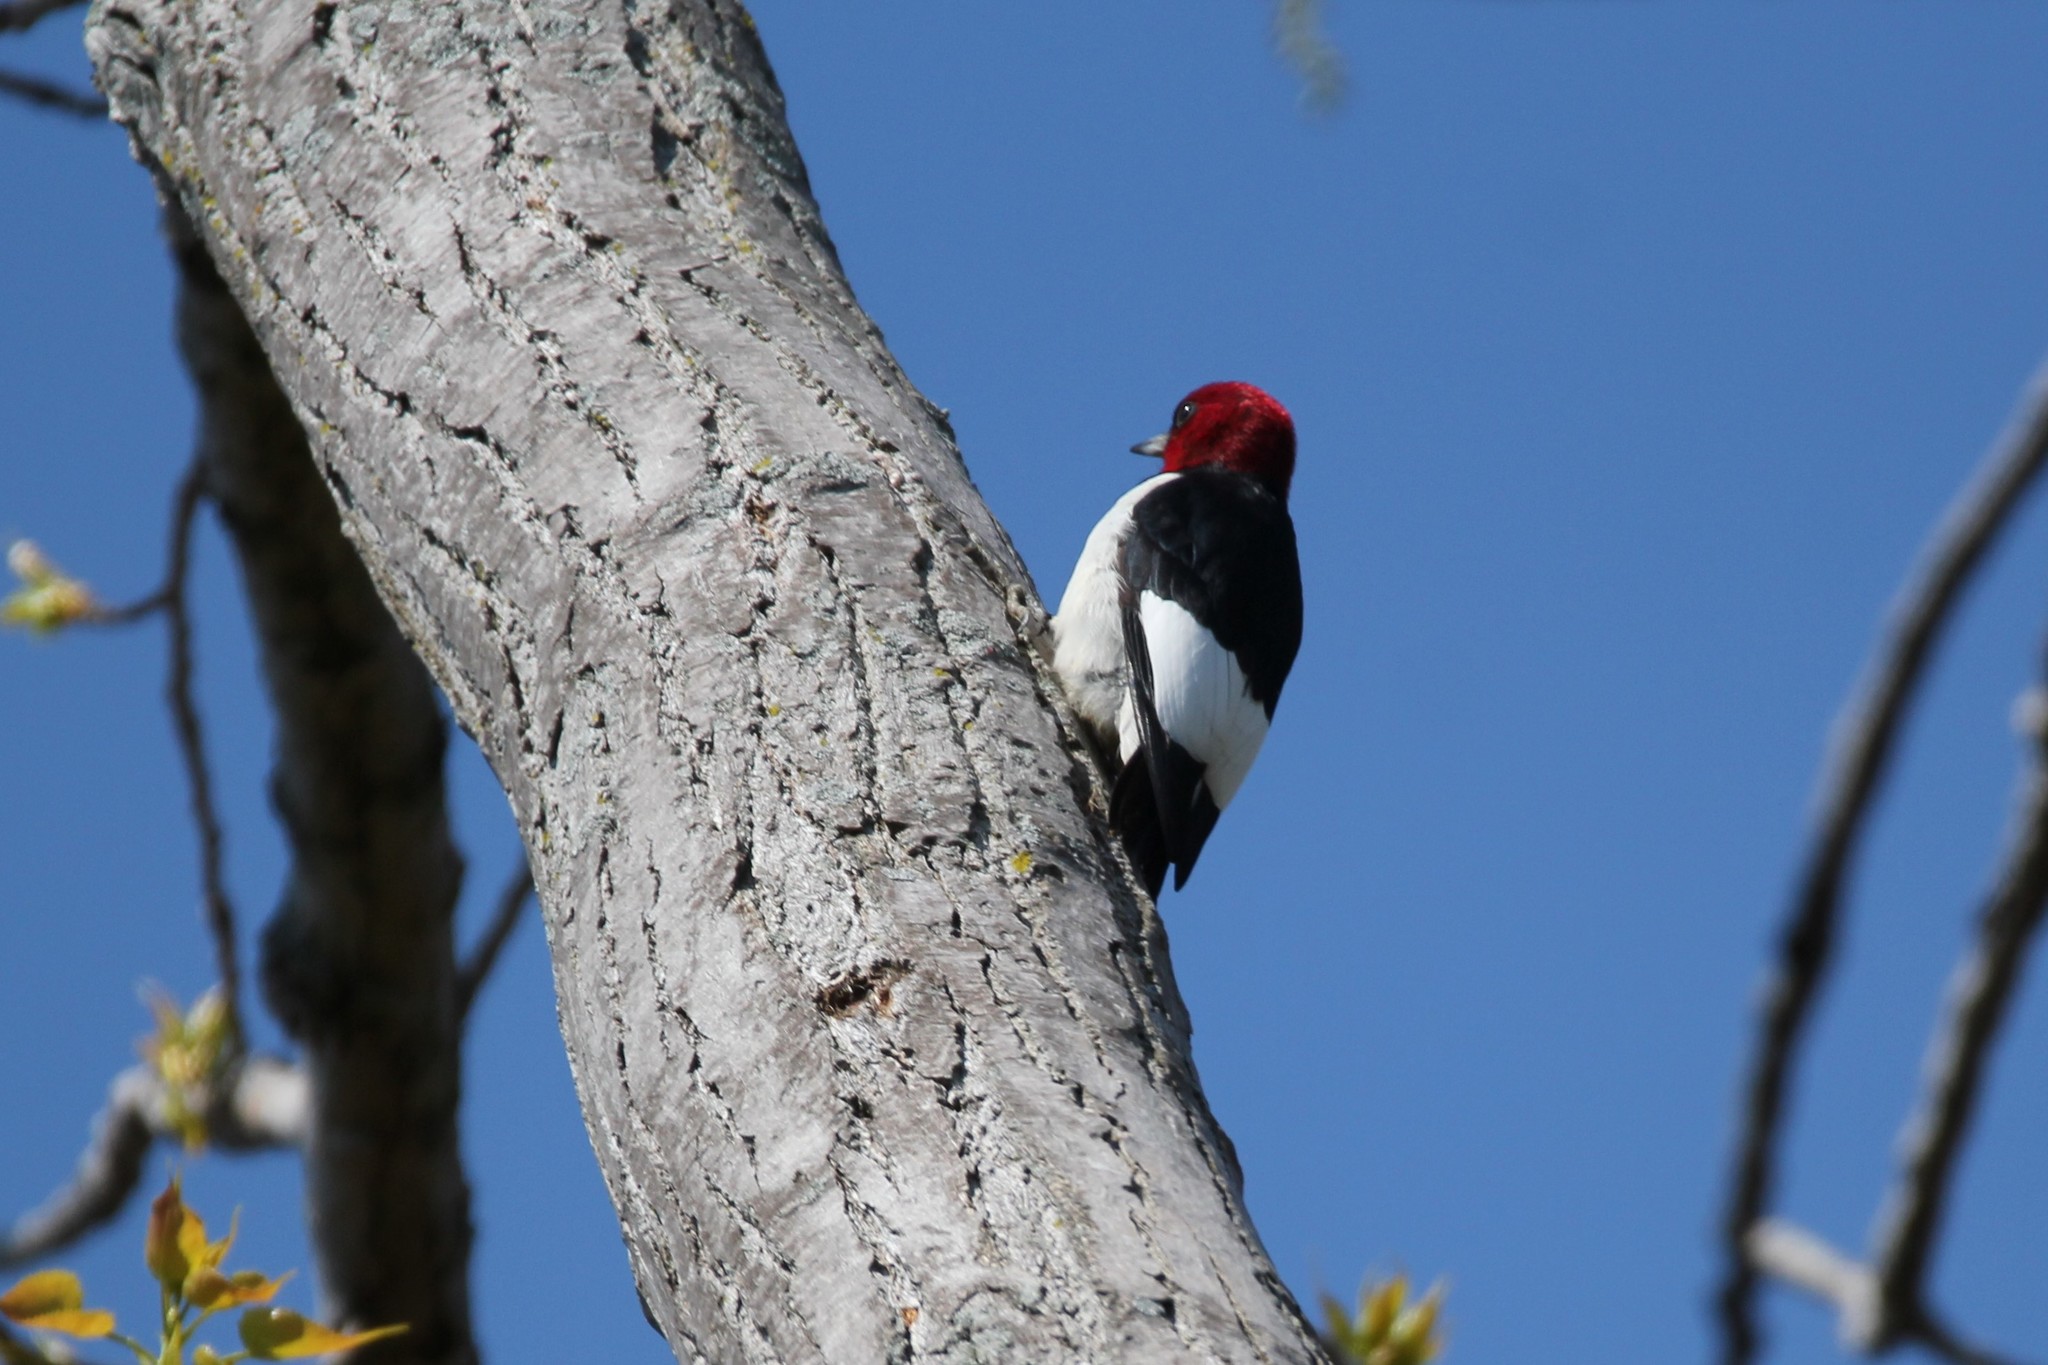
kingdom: Animalia
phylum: Chordata
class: Aves
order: Piciformes
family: Picidae
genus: Melanerpes
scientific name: Melanerpes erythrocephalus
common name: Red-headed woodpecker
